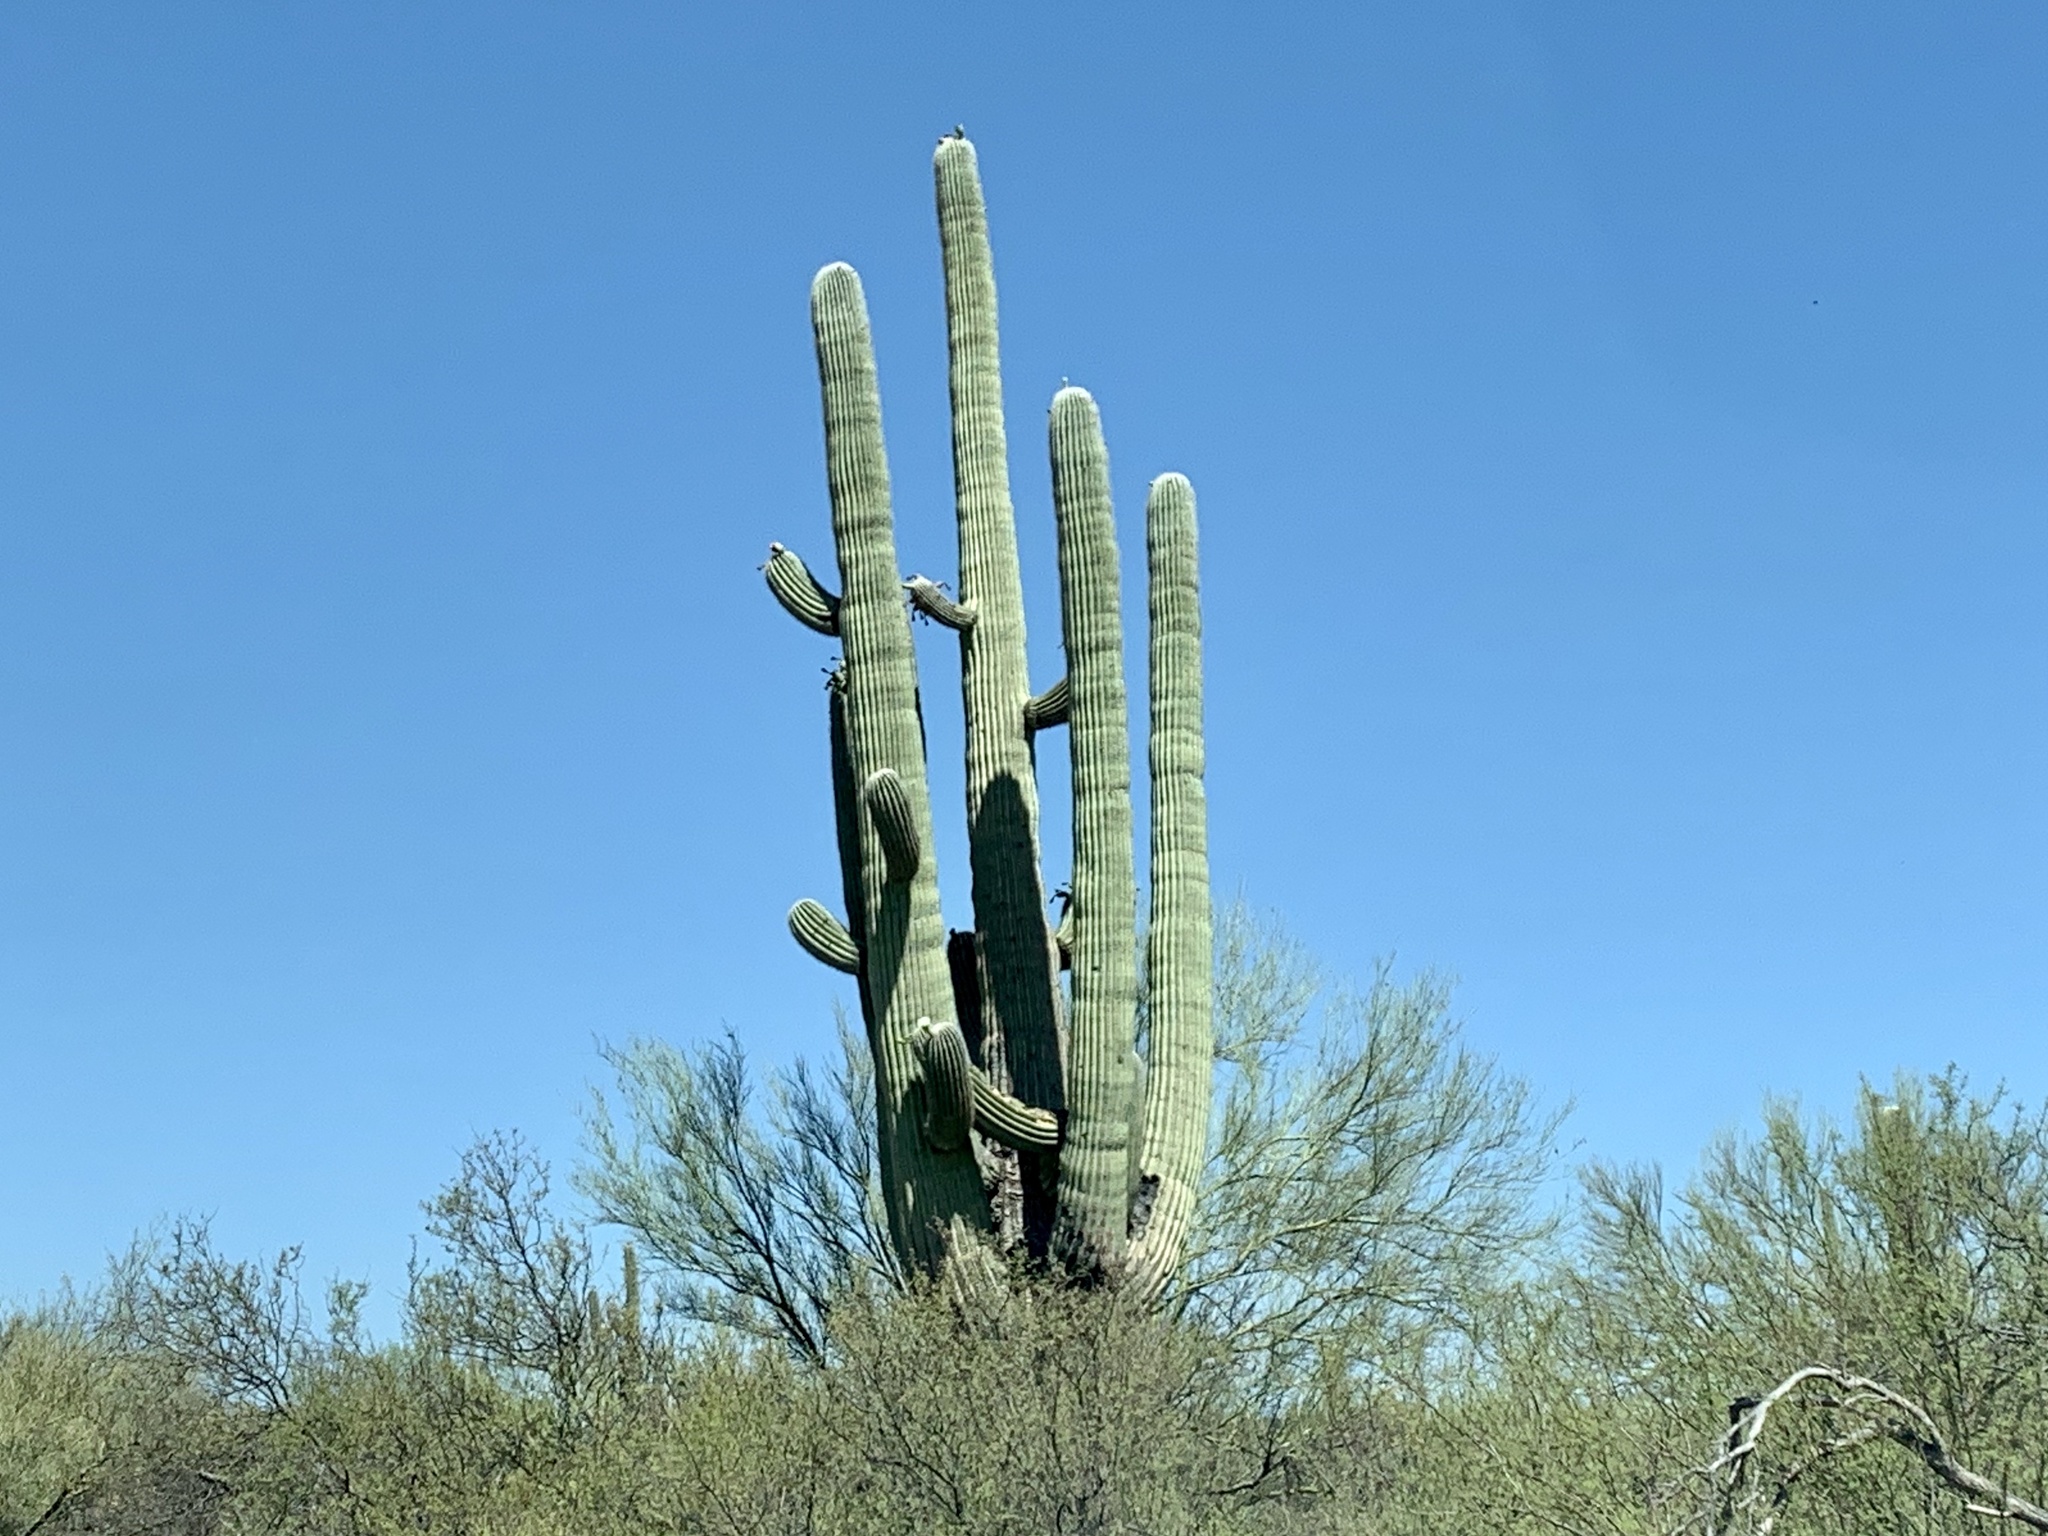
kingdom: Plantae
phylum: Tracheophyta
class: Magnoliopsida
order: Caryophyllales
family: Cactaceae
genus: Carnegiea
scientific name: Carnegiea gigantea
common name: Saguaro
